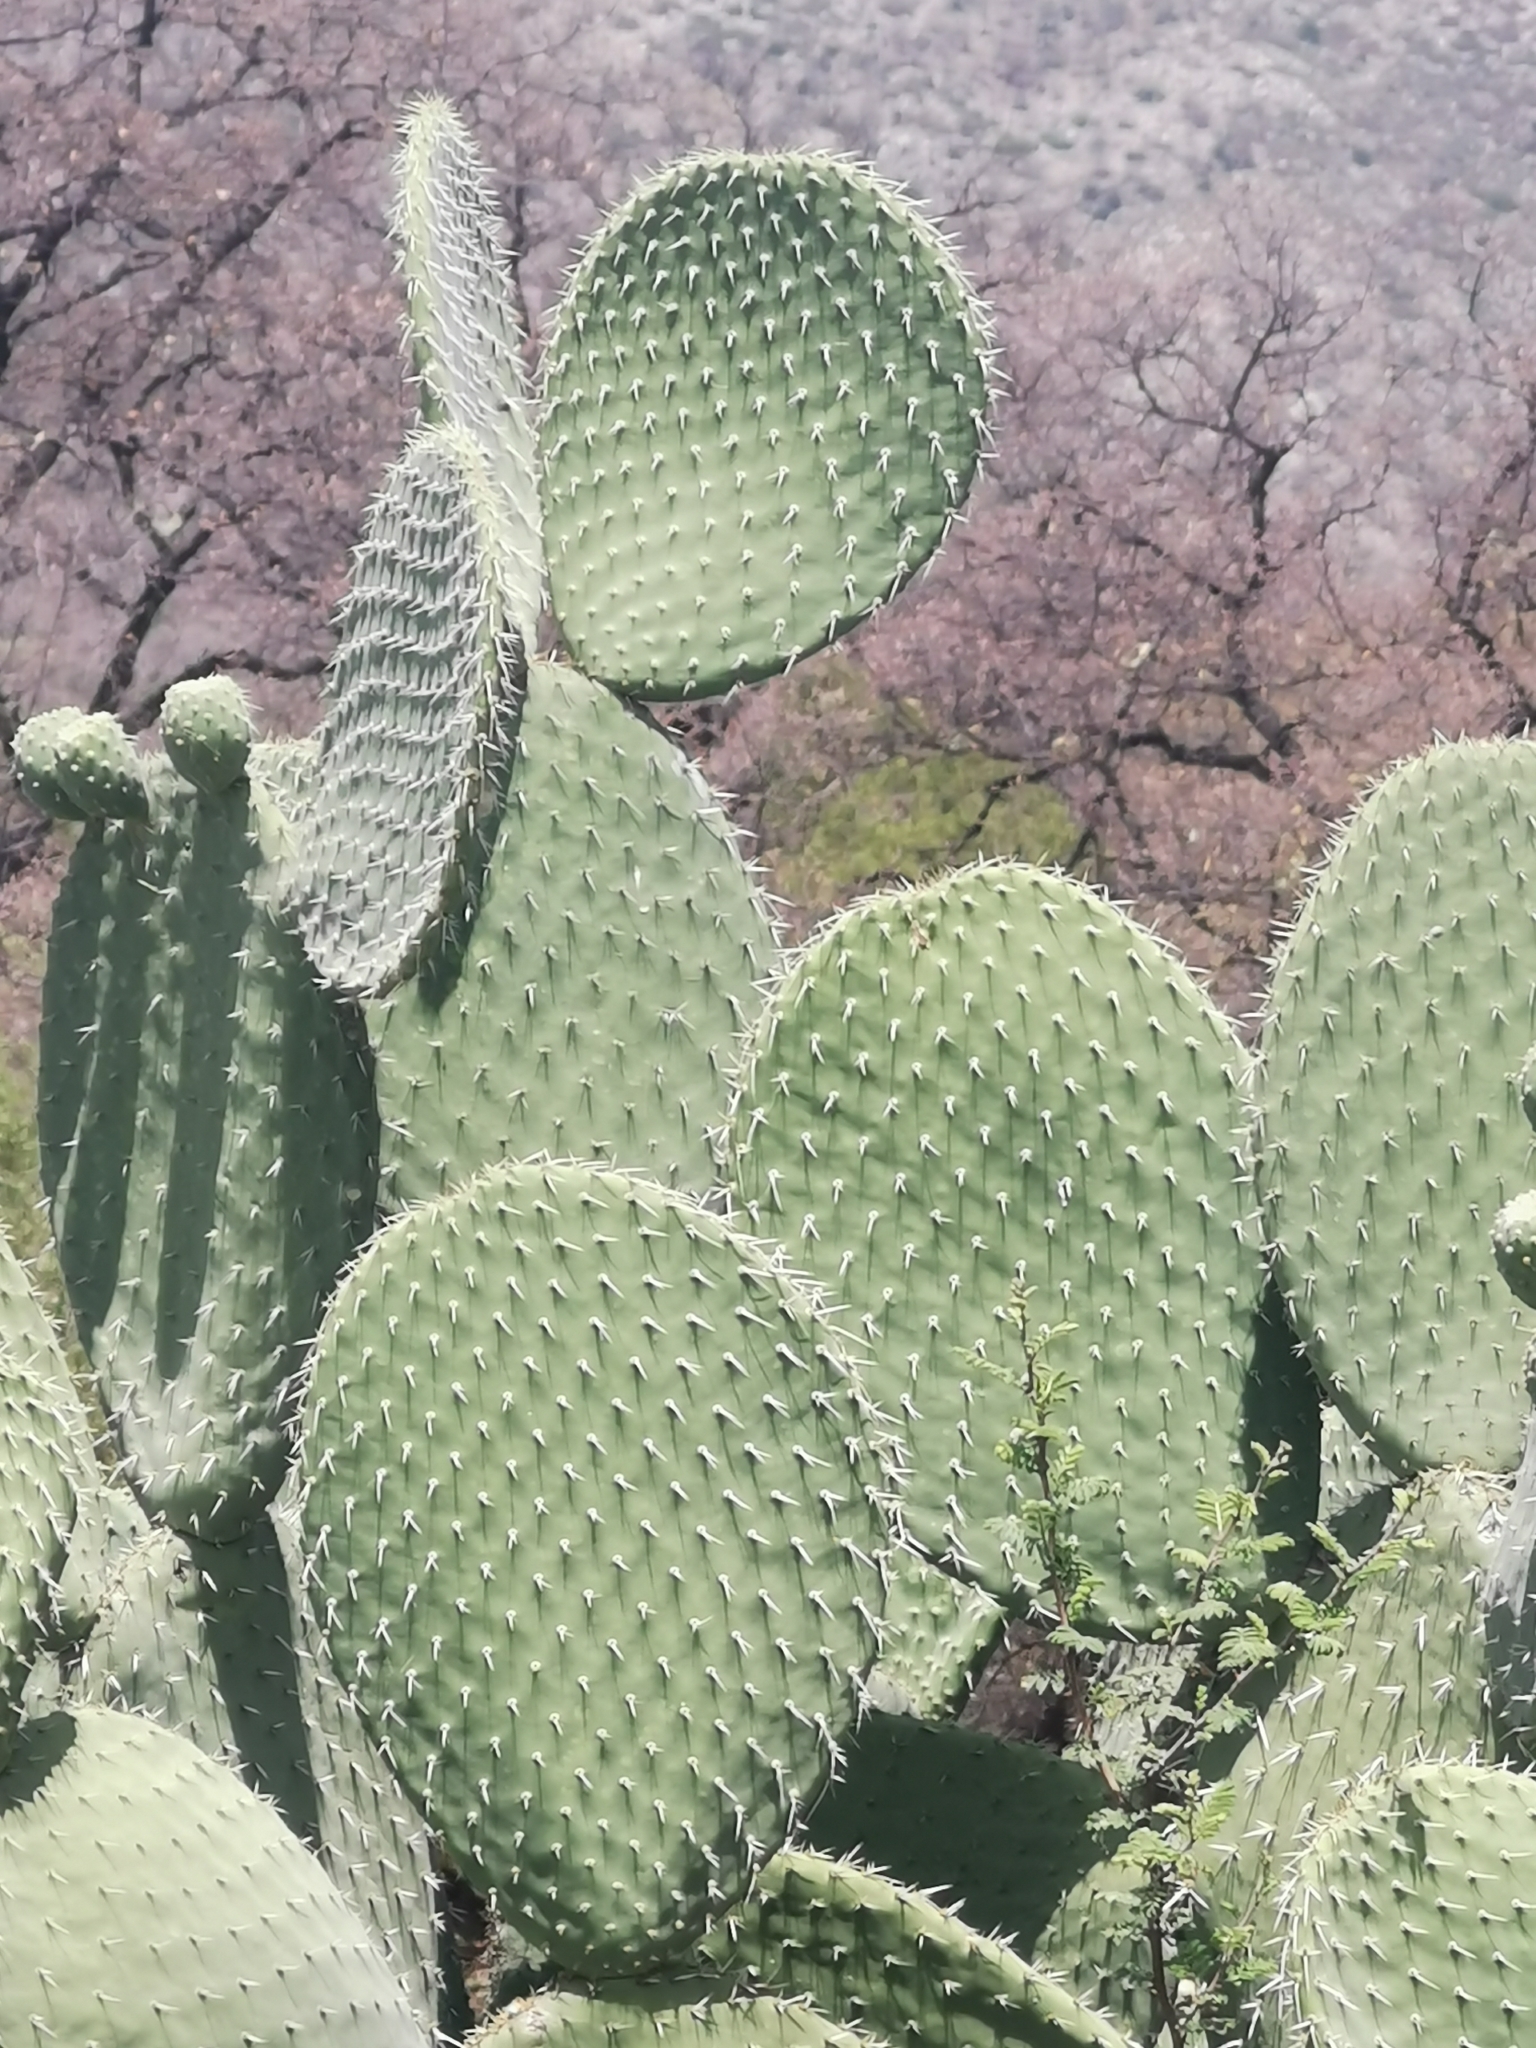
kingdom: Plantae
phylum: Tracheophyta
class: Magnoliopsida
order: Caryophyllales
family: Cactaceae
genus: Opuntia
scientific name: Opuntia leucotricha
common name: Arborescent pricklypear
